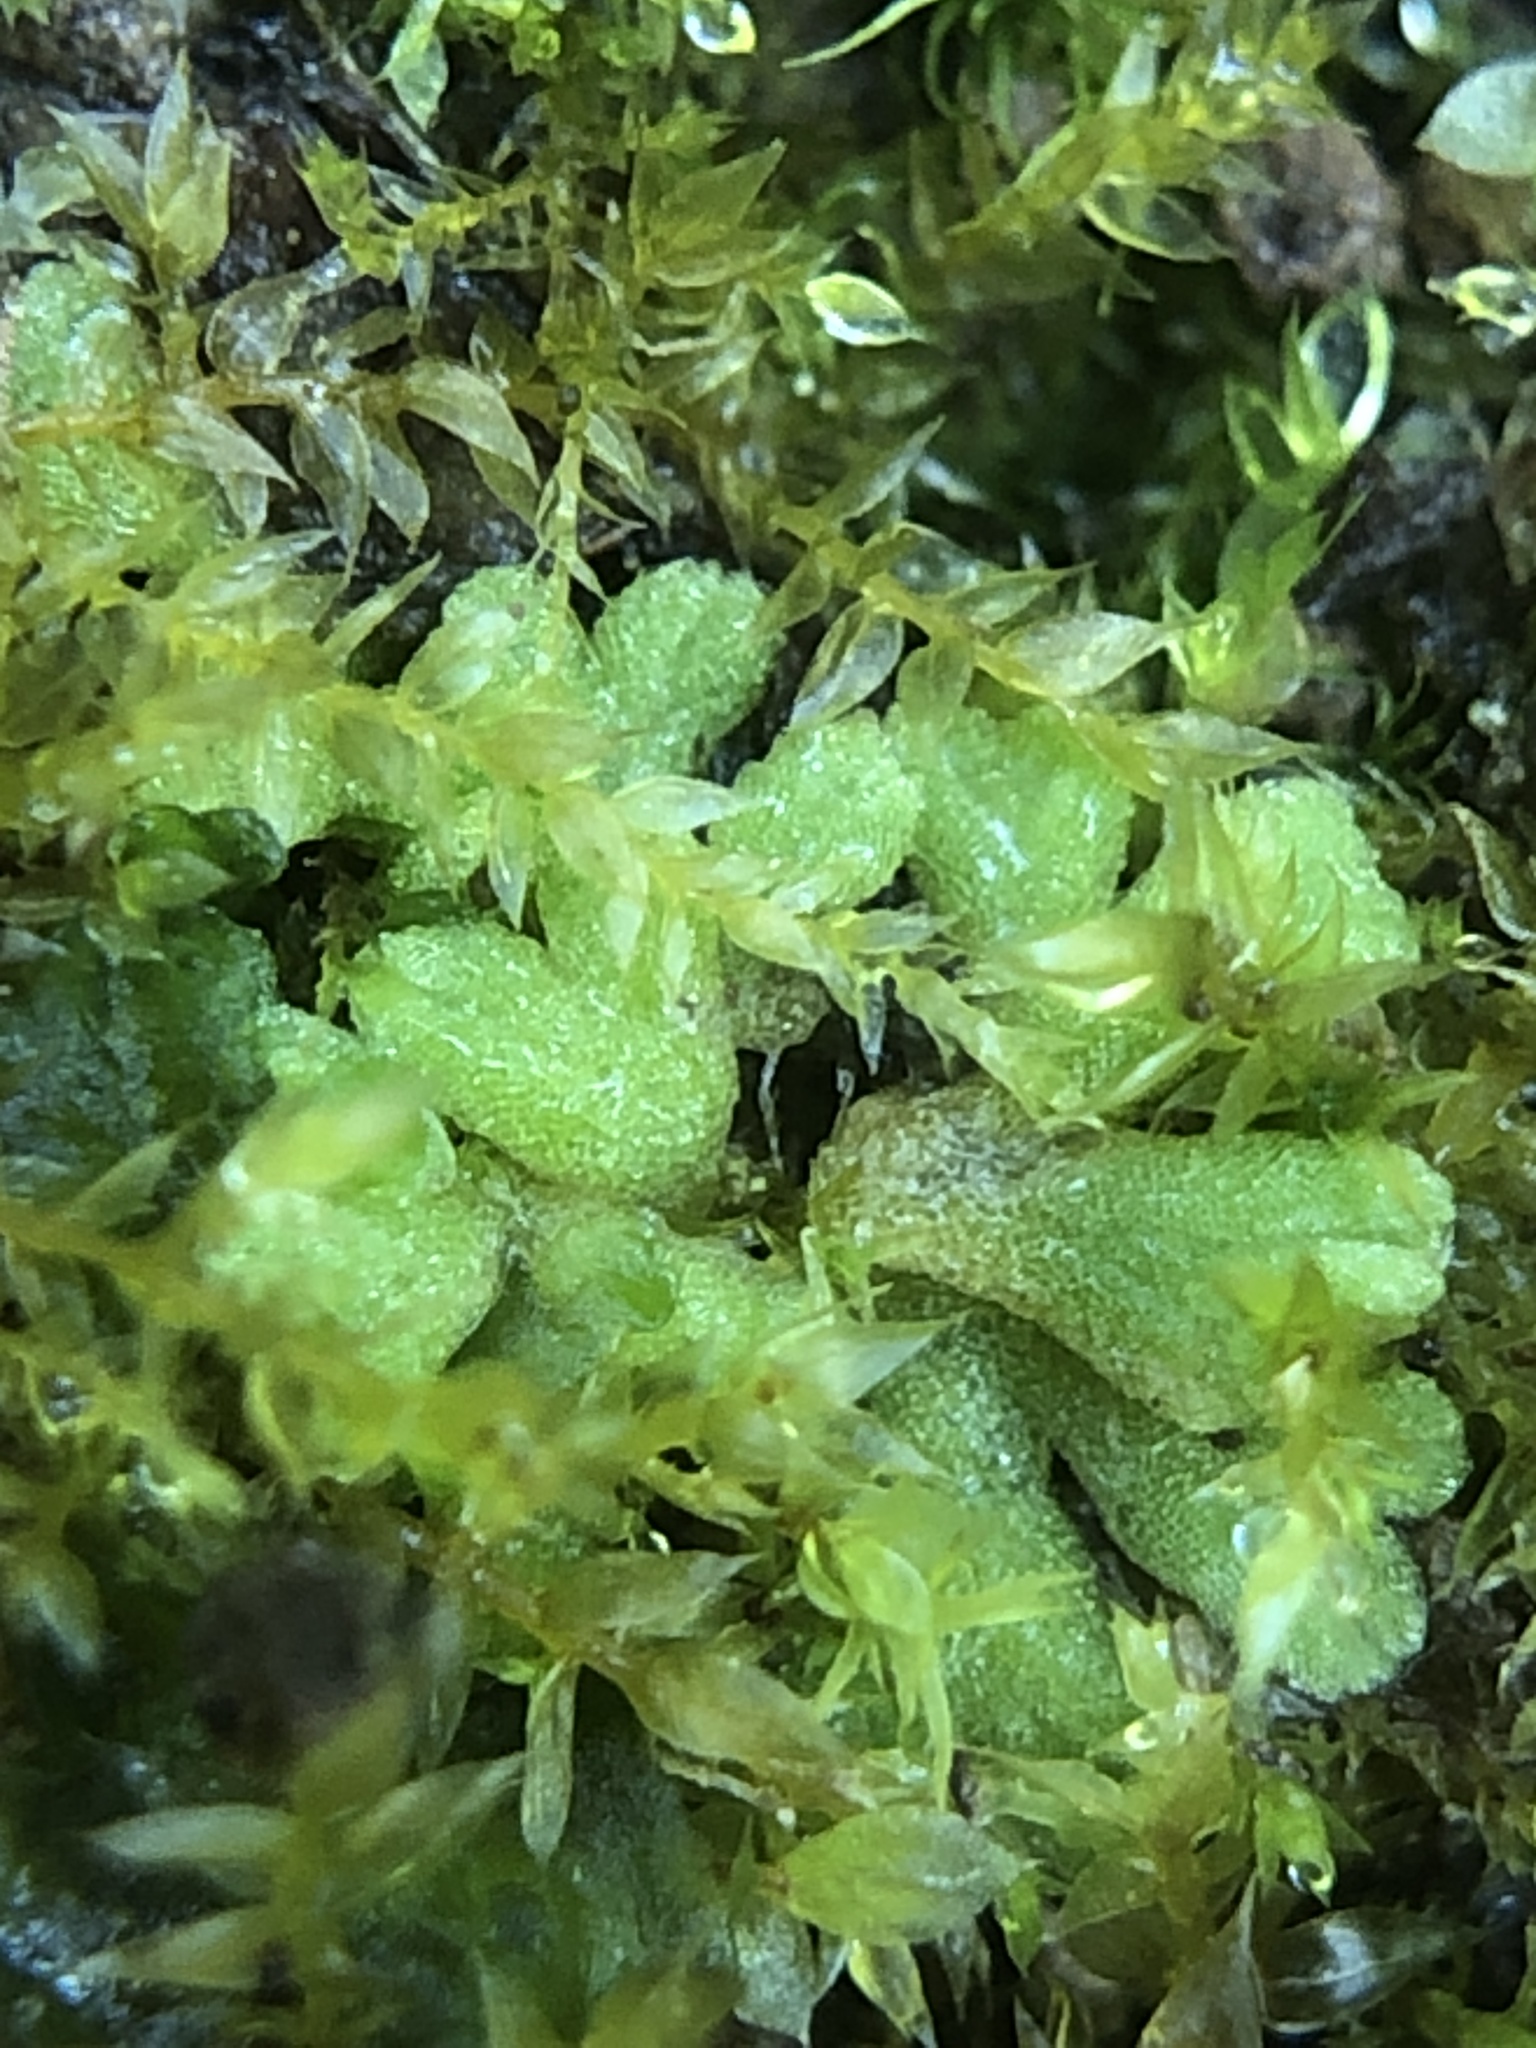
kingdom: Plantae
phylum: Marchantiophyta
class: Marchantiopsida
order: Marchantiales
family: Ricciaceae
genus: Riccia
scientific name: Riccia glauca
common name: Glaucous crystalwort
